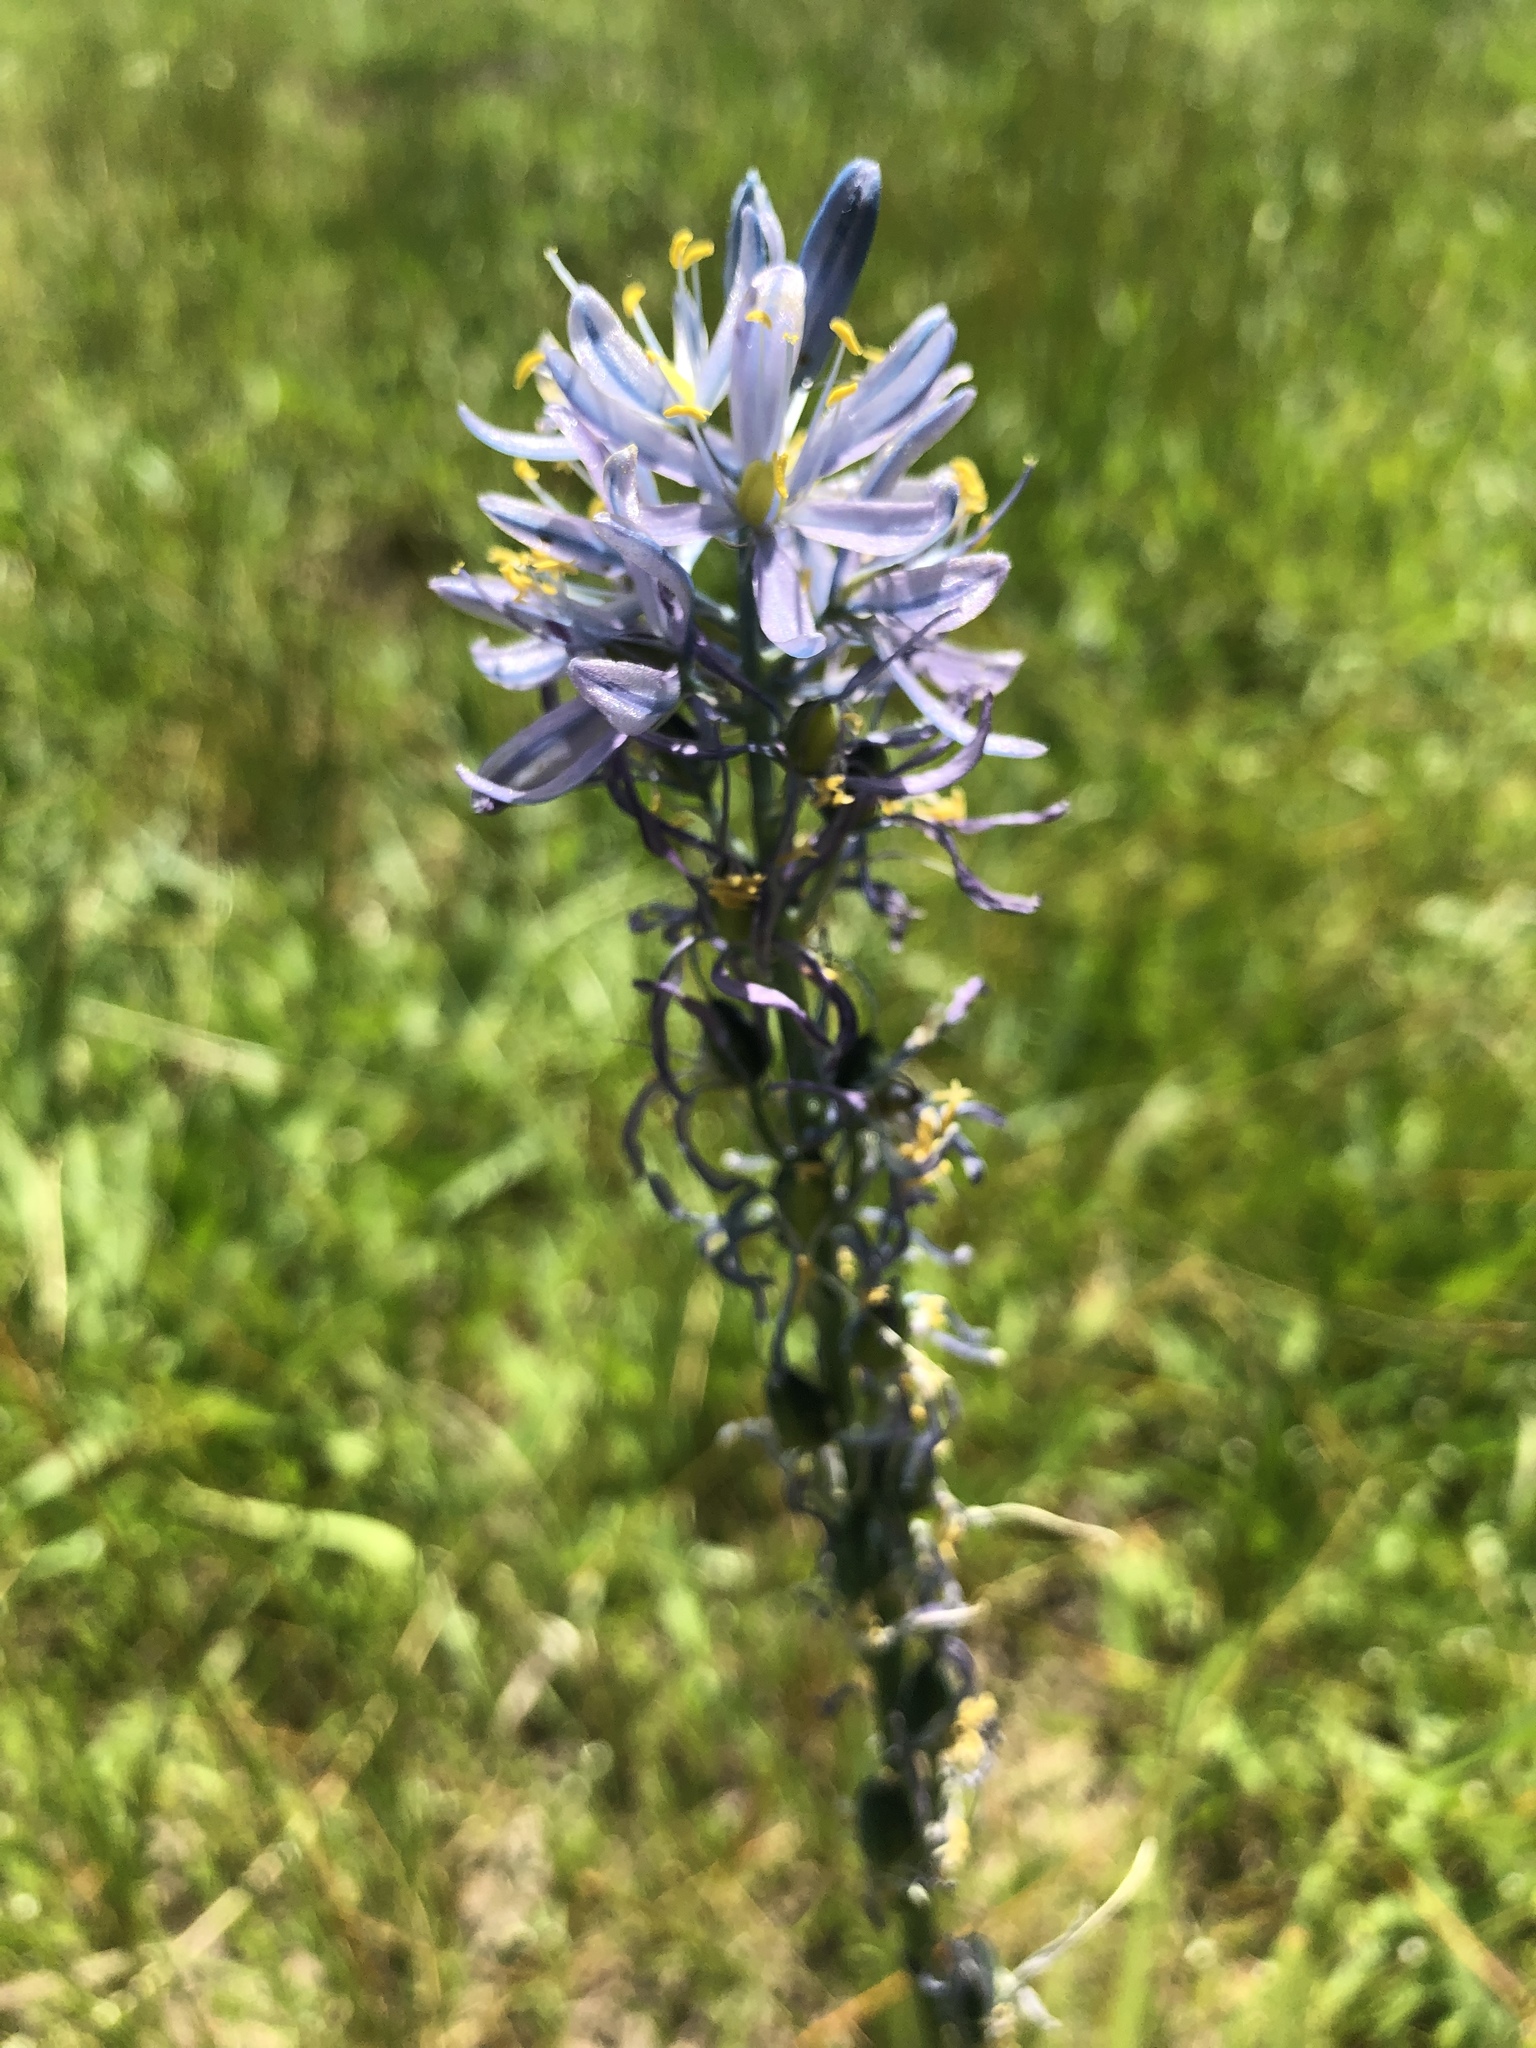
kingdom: Plantae
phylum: Tracheophyta
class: Liliopsida
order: Asparagales
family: Asparagaceae
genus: Camassia
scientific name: Camassia quamash
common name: Common camas
